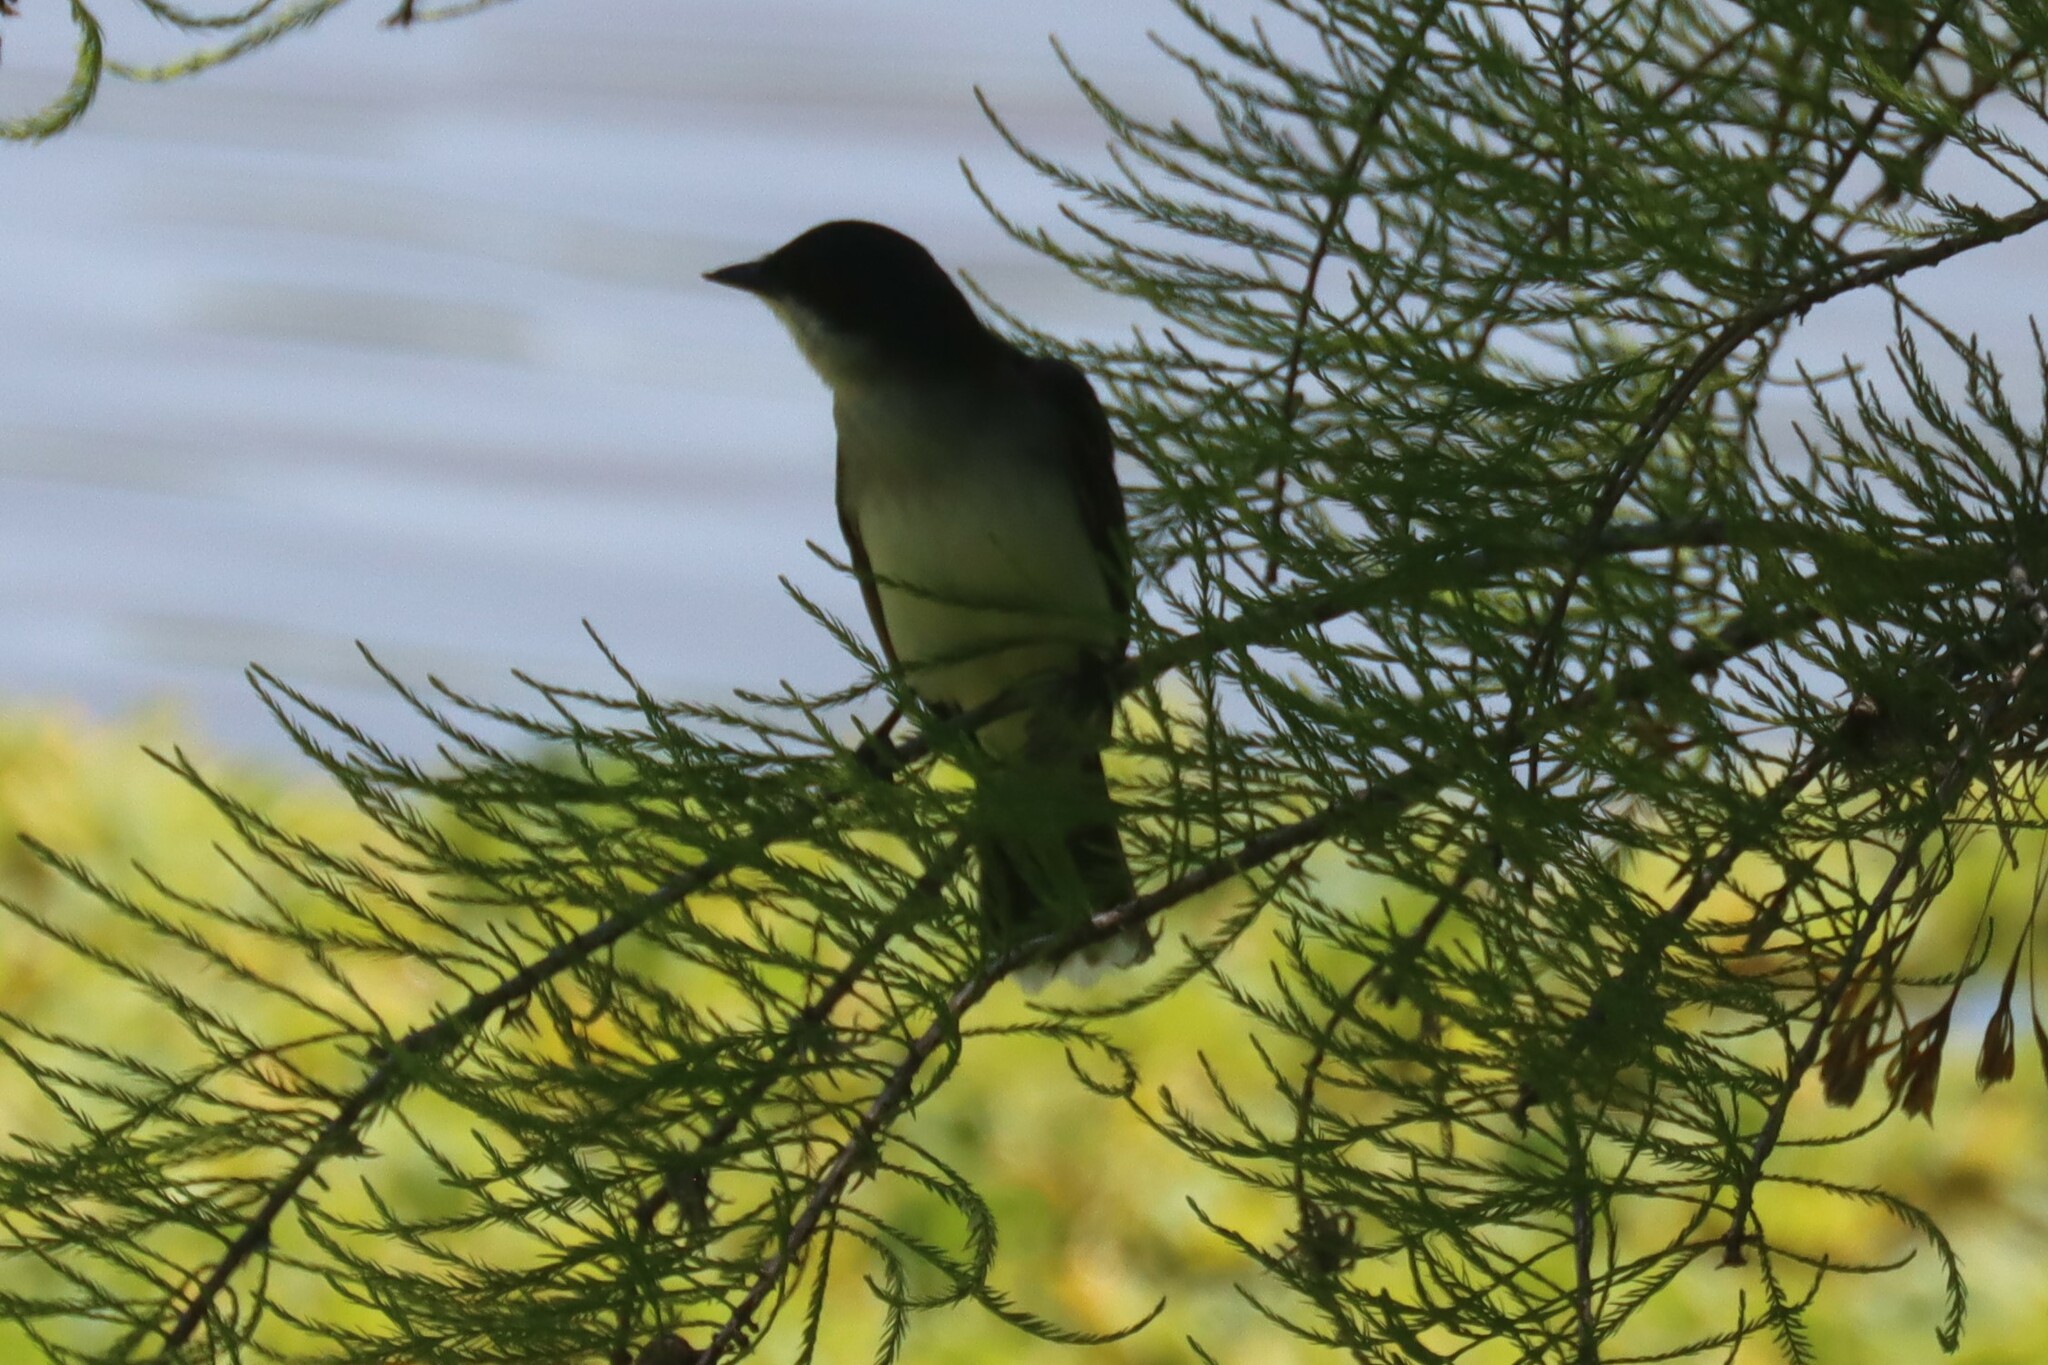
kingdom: Animalia
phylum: Chordata
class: Aves
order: Passeriformes
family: Tyrannidae
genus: Tyrannus
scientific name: Tyrannus tyrannus
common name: Eastern kingbird
